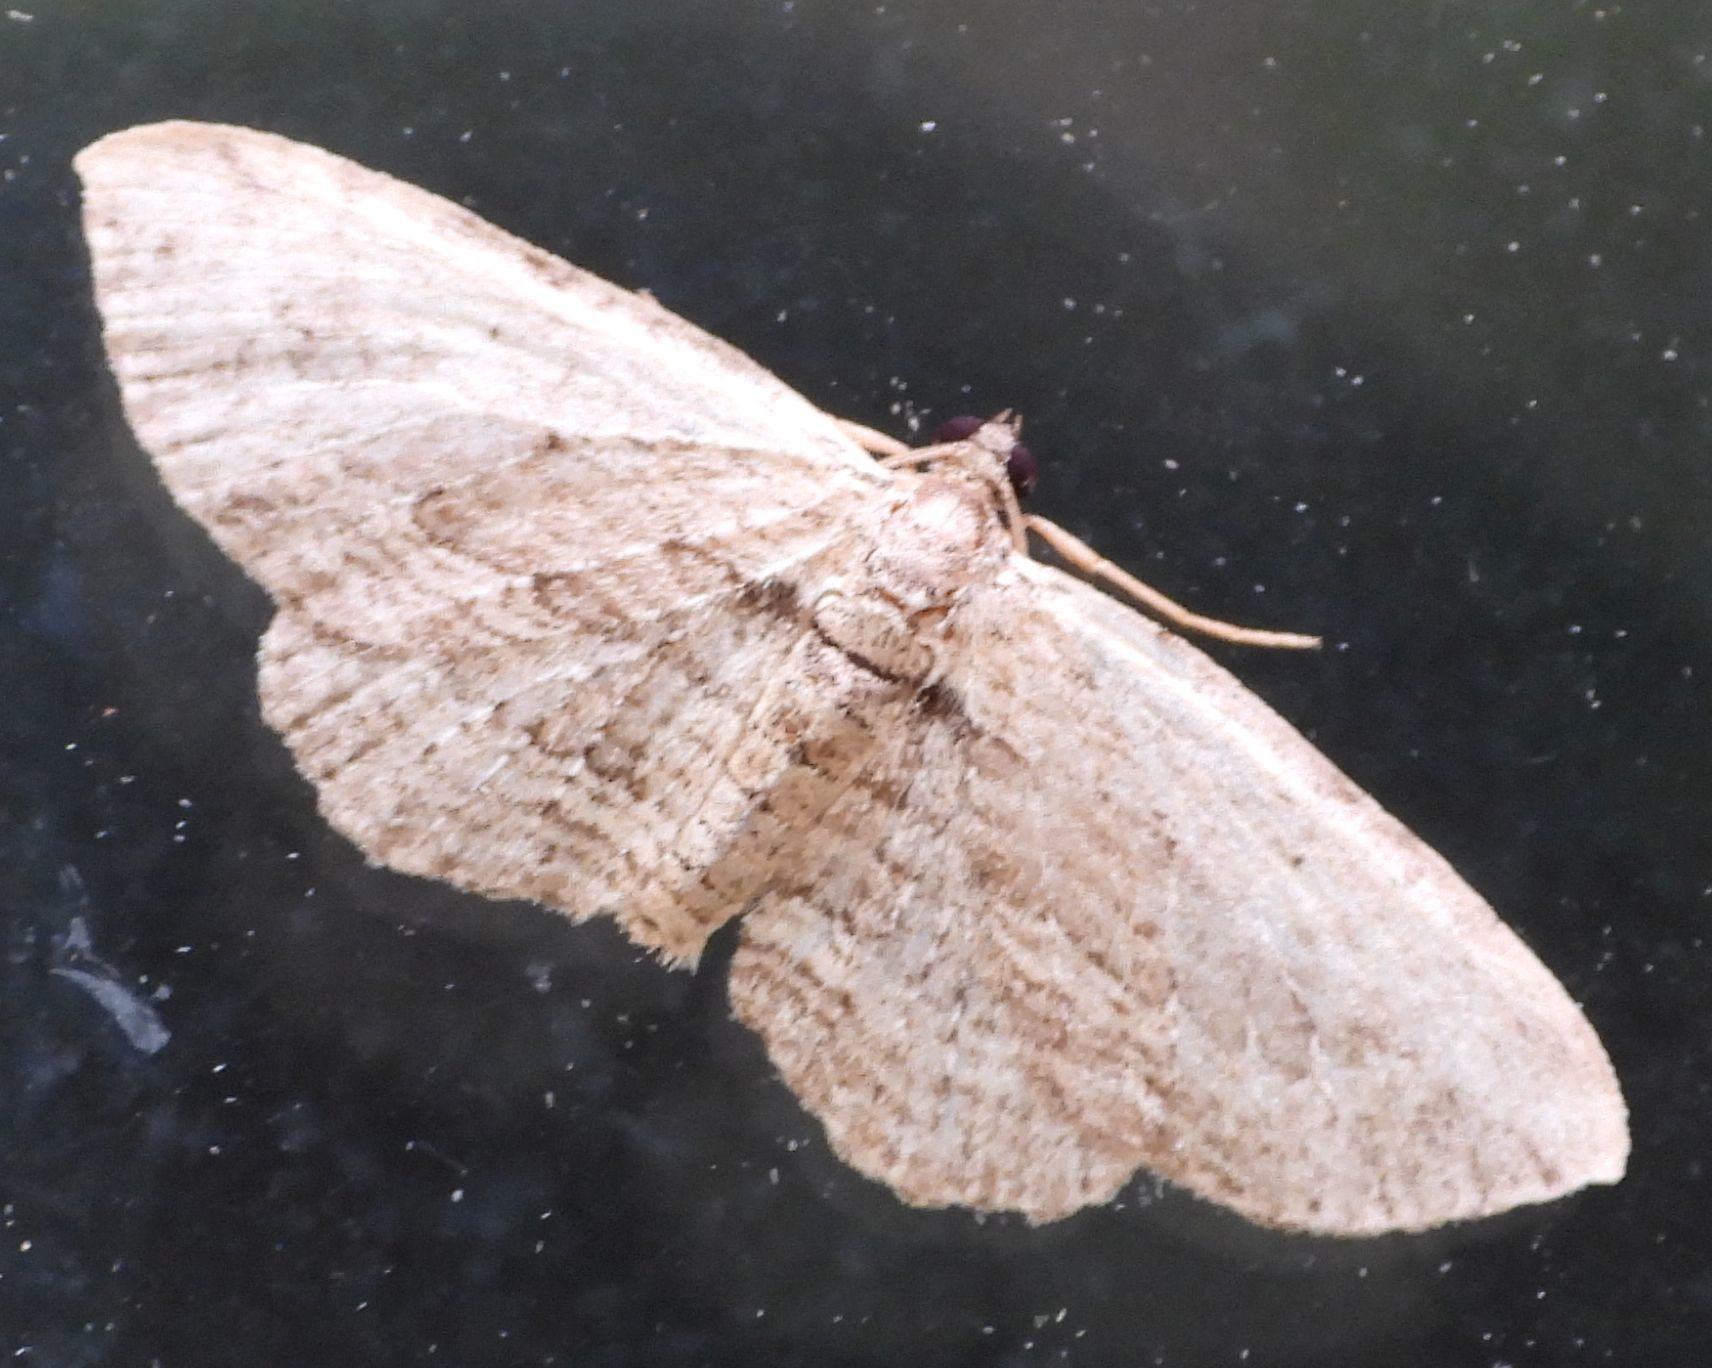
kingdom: Animalia
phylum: Arthropoda
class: Insecta
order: Lepidoptera
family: Geometridae
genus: Horisme
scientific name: Horisme intestinata
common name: Brown bark carpet
